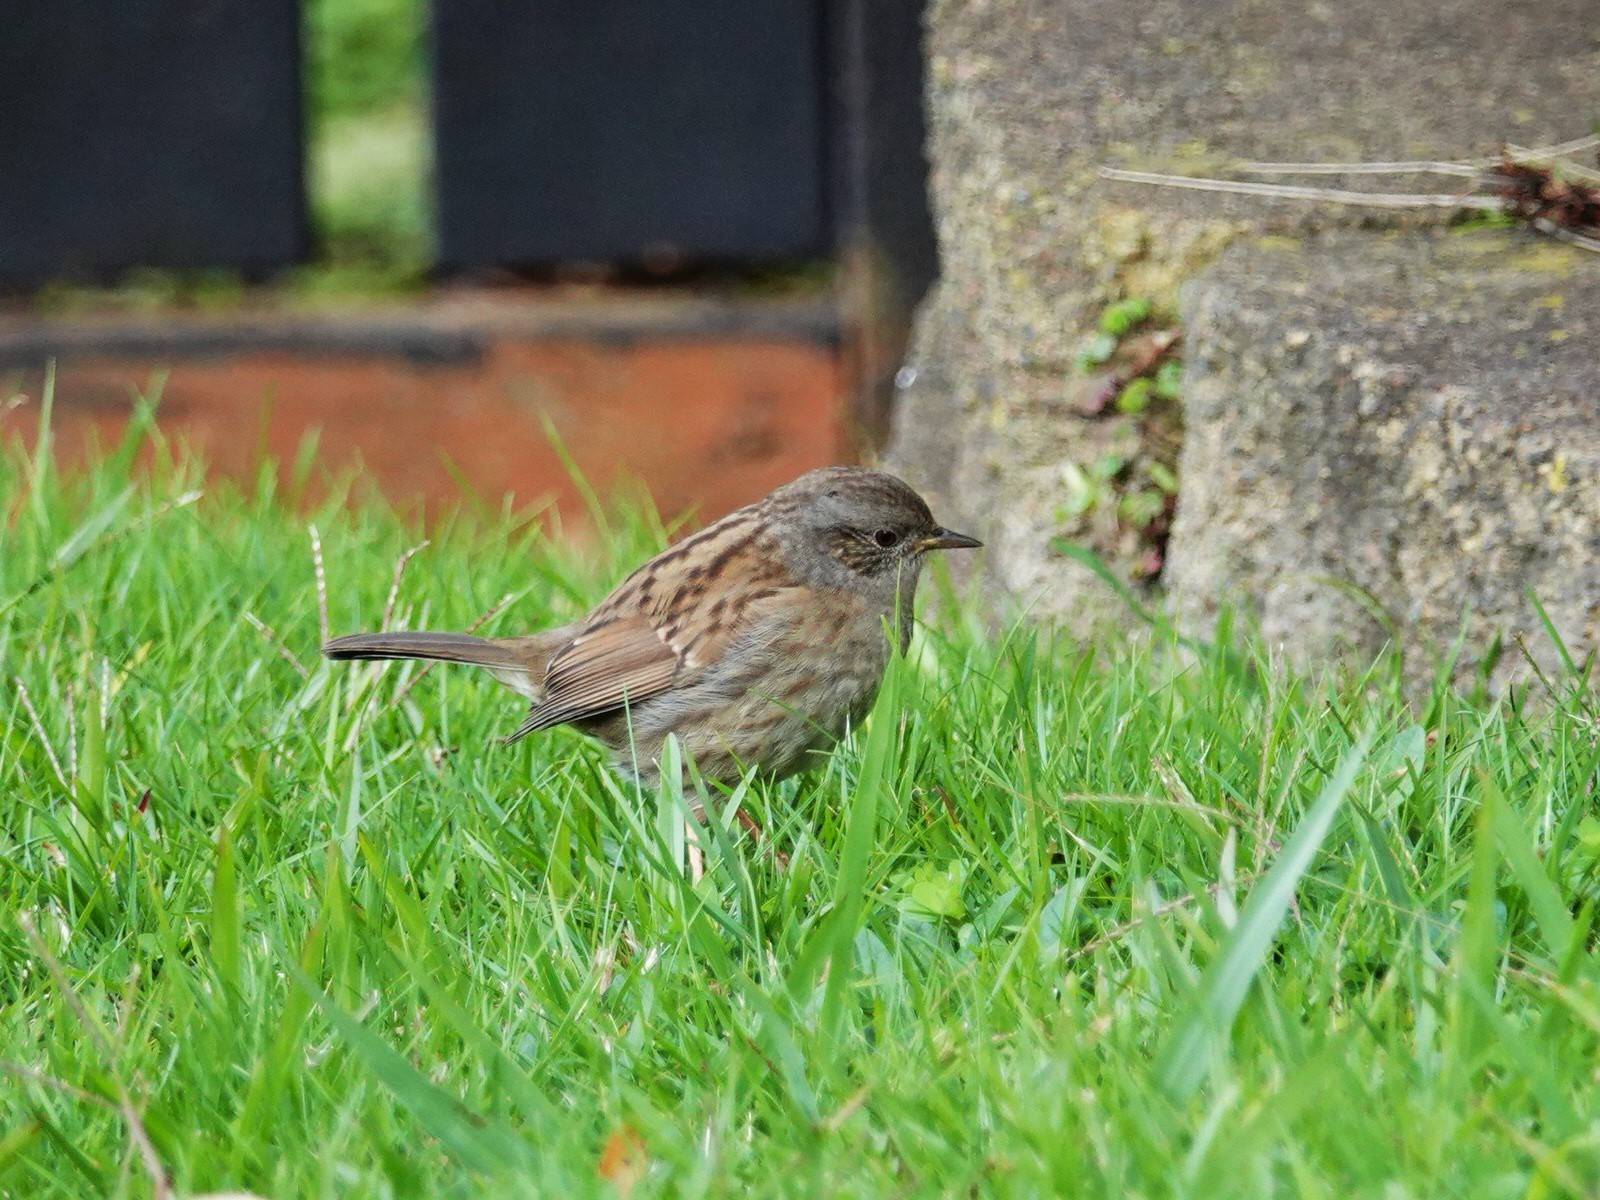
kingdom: Animalia
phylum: Chordata
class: Aves
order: Passeriformes
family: Prunellidae
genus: Prunella
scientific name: Prunella modularis
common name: Dunnock
